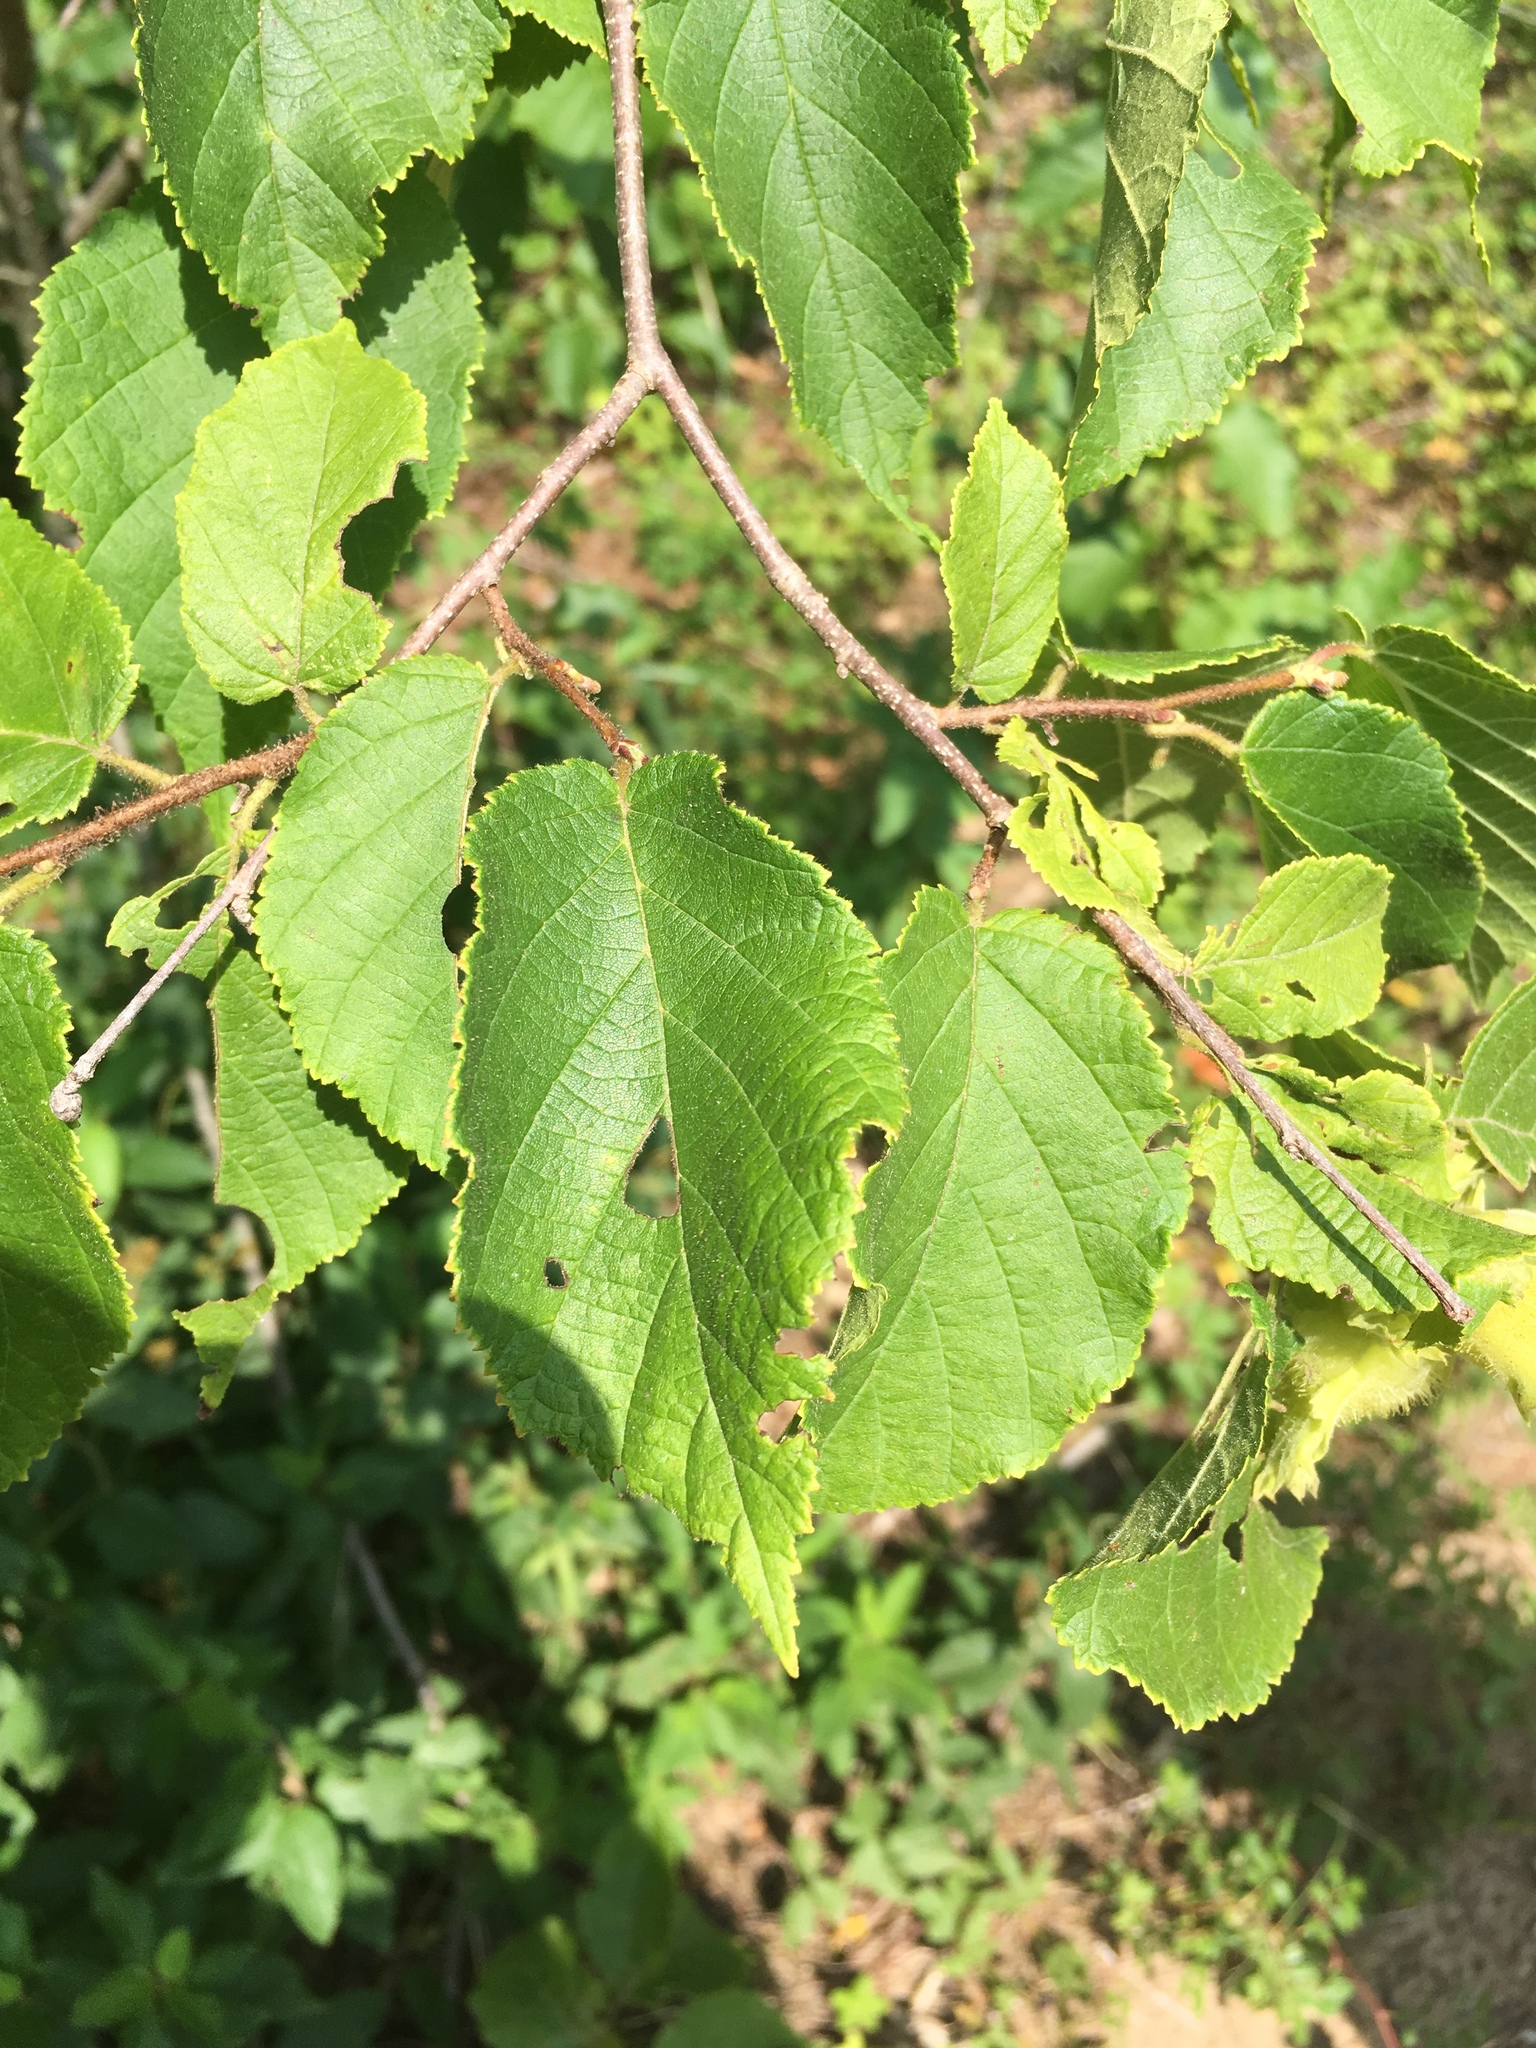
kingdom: Plantae
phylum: Tracheophyta
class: Magnoliopsida
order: Fagales
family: Betulaceae
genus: Corylus
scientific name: Corylus americana
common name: American hazel
